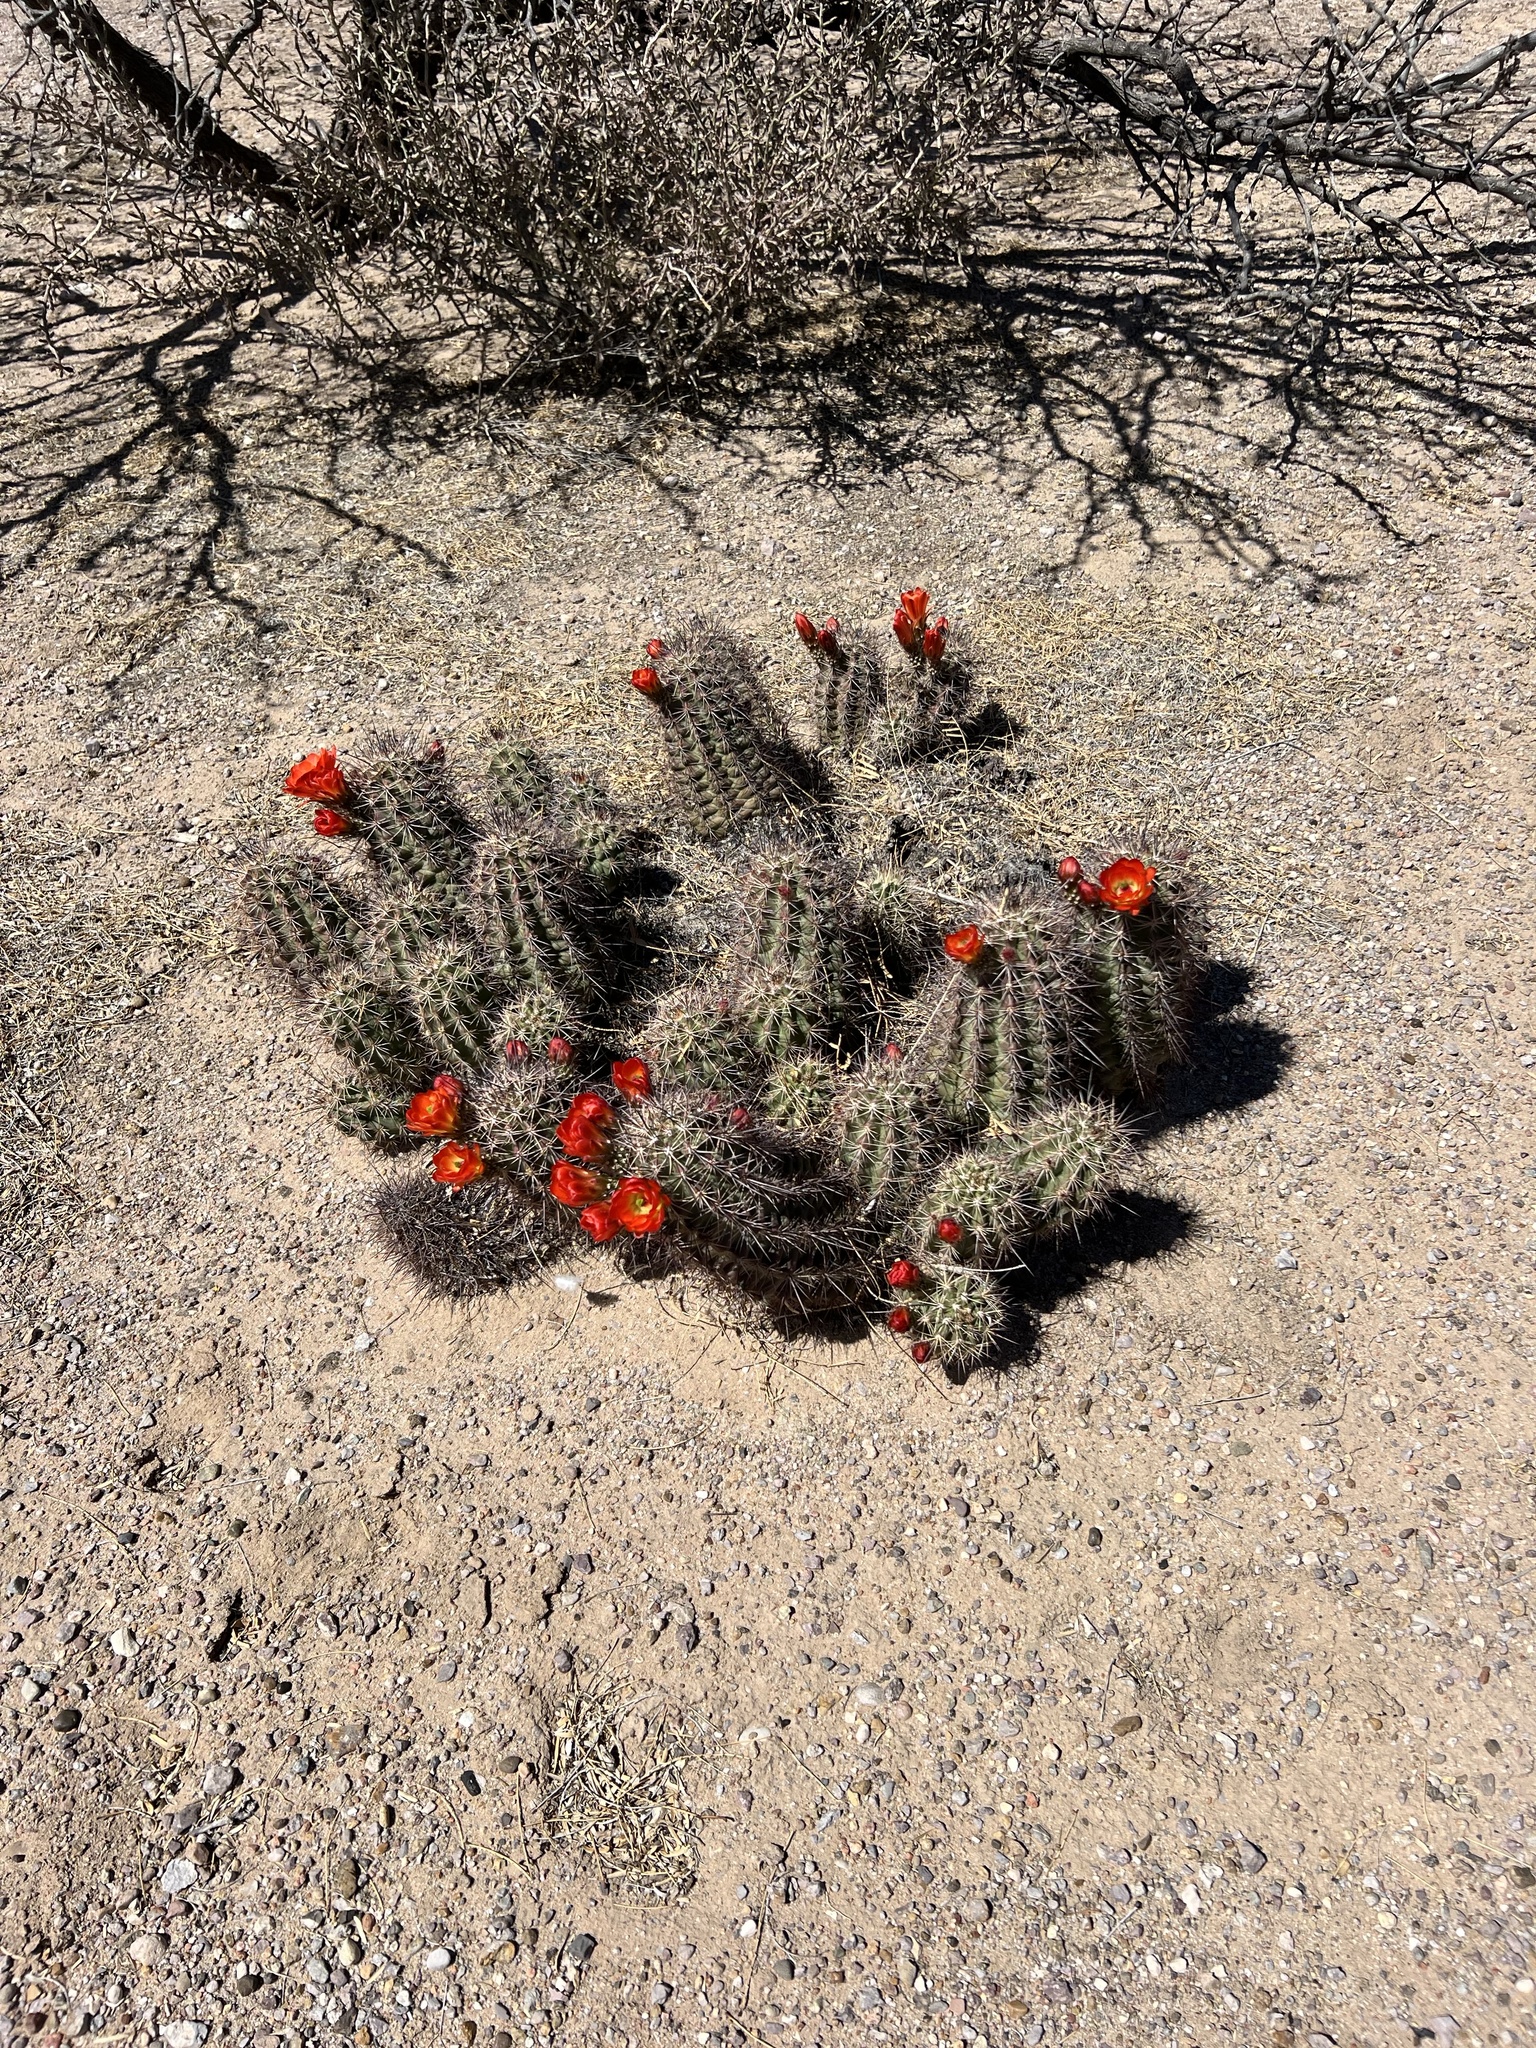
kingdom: Plantae
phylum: Tracheophyta
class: Magnoliopsida
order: Caryophyllales
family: Cactaceae
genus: Echinocereus
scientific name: Echinocereus coccineus
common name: Scarlet hedgehog cactus
